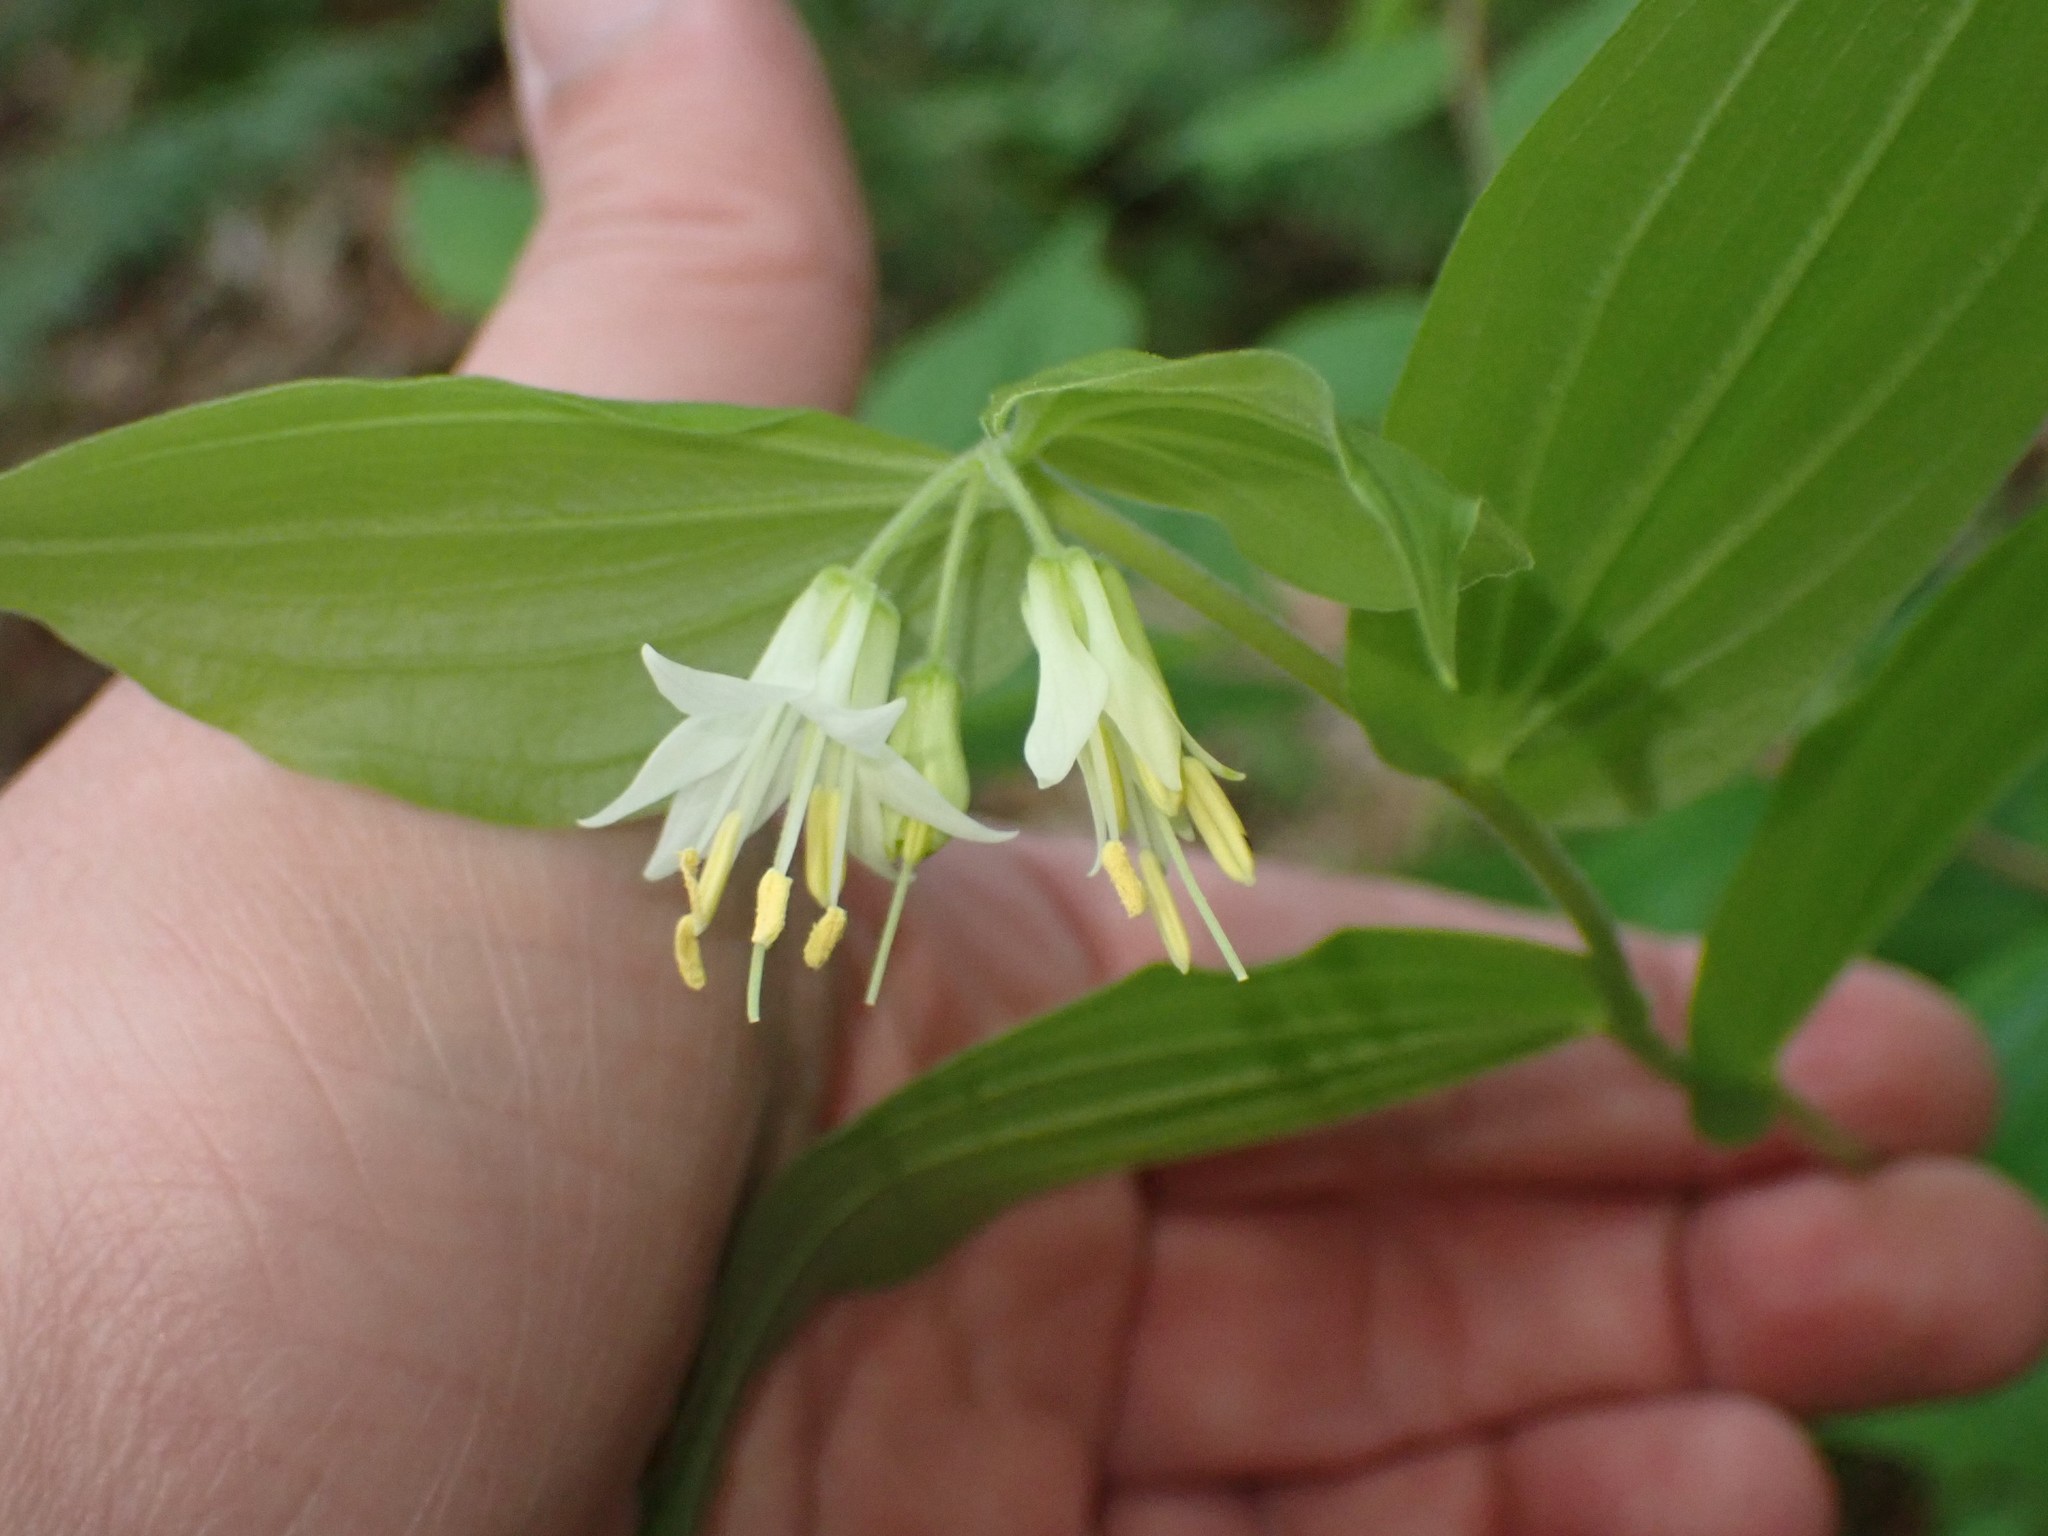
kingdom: Plantae
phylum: Tracheophyta
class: Liliopsida
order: Liliales
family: Liliaceae
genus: Prosartes
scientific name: Prosartes hookeri
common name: Fairy-bells
